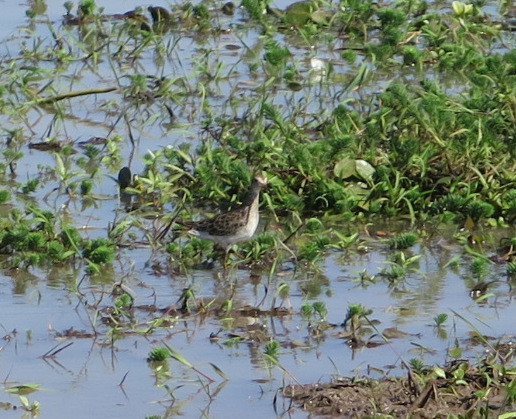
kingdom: Animalia
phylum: Chordata
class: Aves
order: Charadriiformes
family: Scolopacidae
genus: Calidris
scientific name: Calidris melanotos
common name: Pectoral sandpiper
